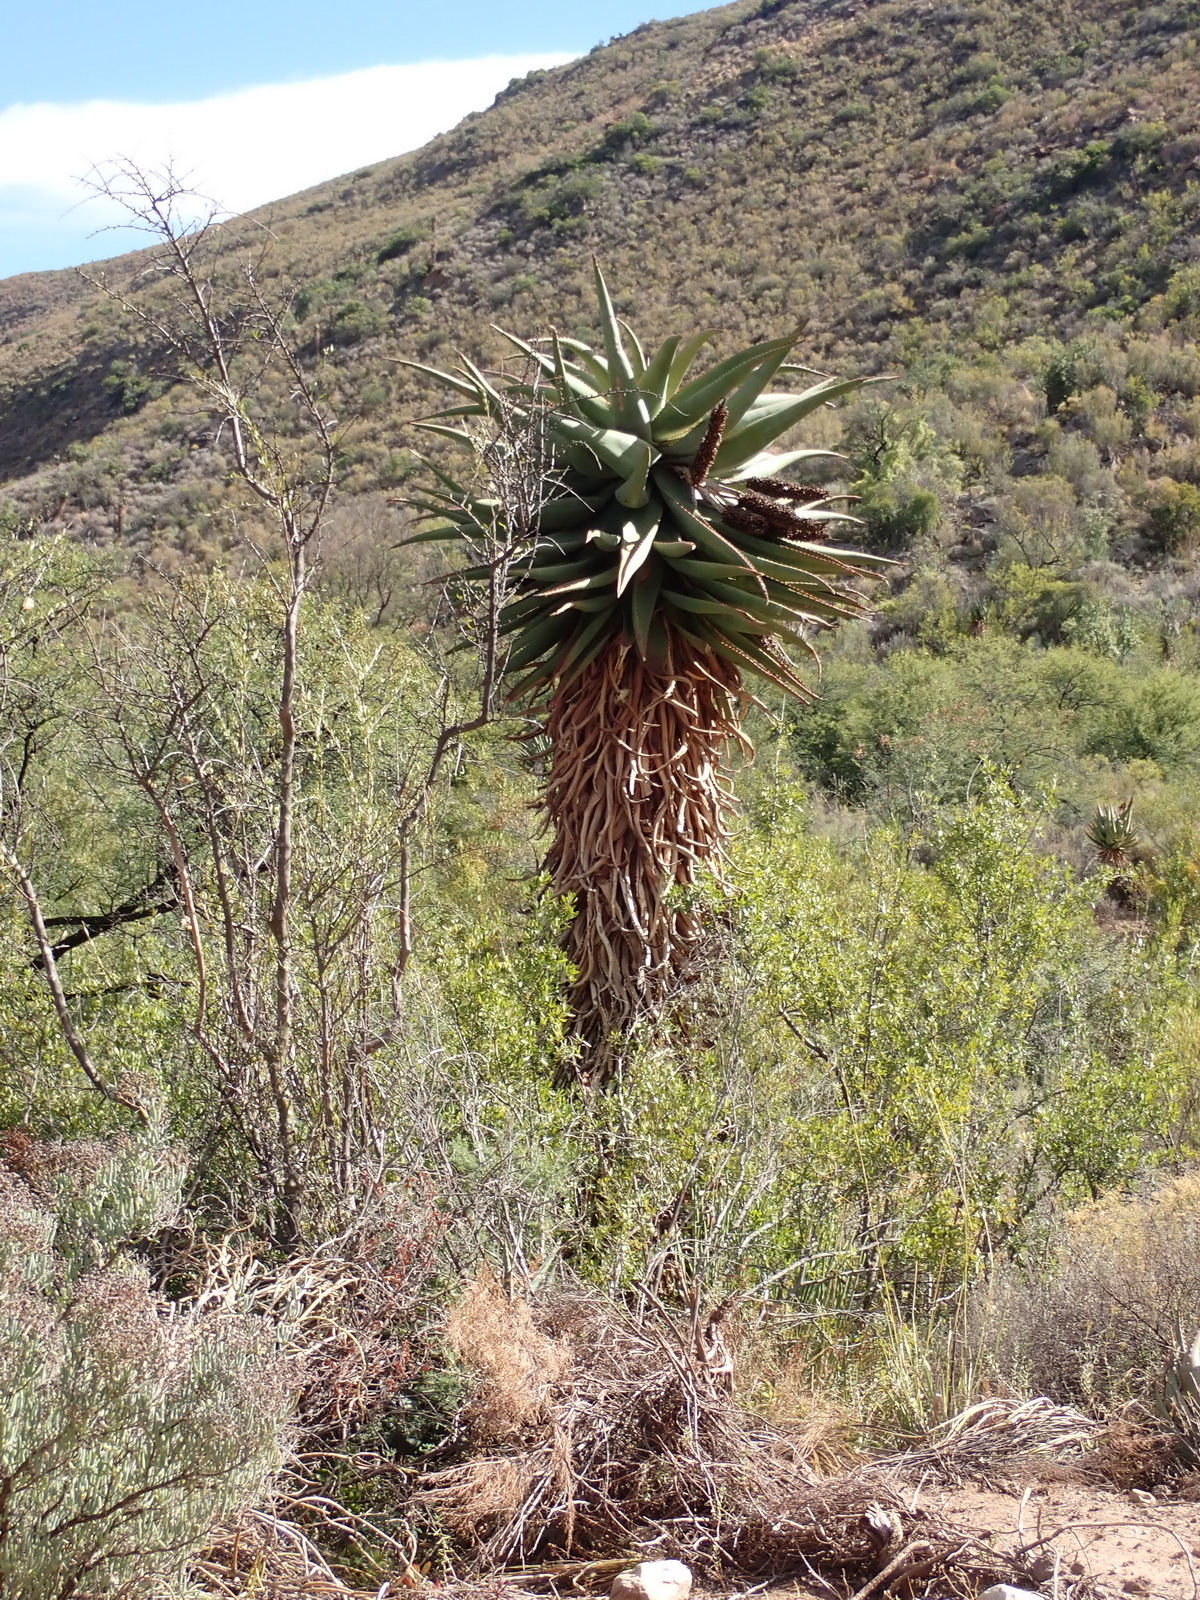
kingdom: Plantae
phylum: Tracheophyta
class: Liliopsida
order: Asparagales
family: Asphodelaceae
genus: Aloe
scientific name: Aloe ferox
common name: Bitter aloe
